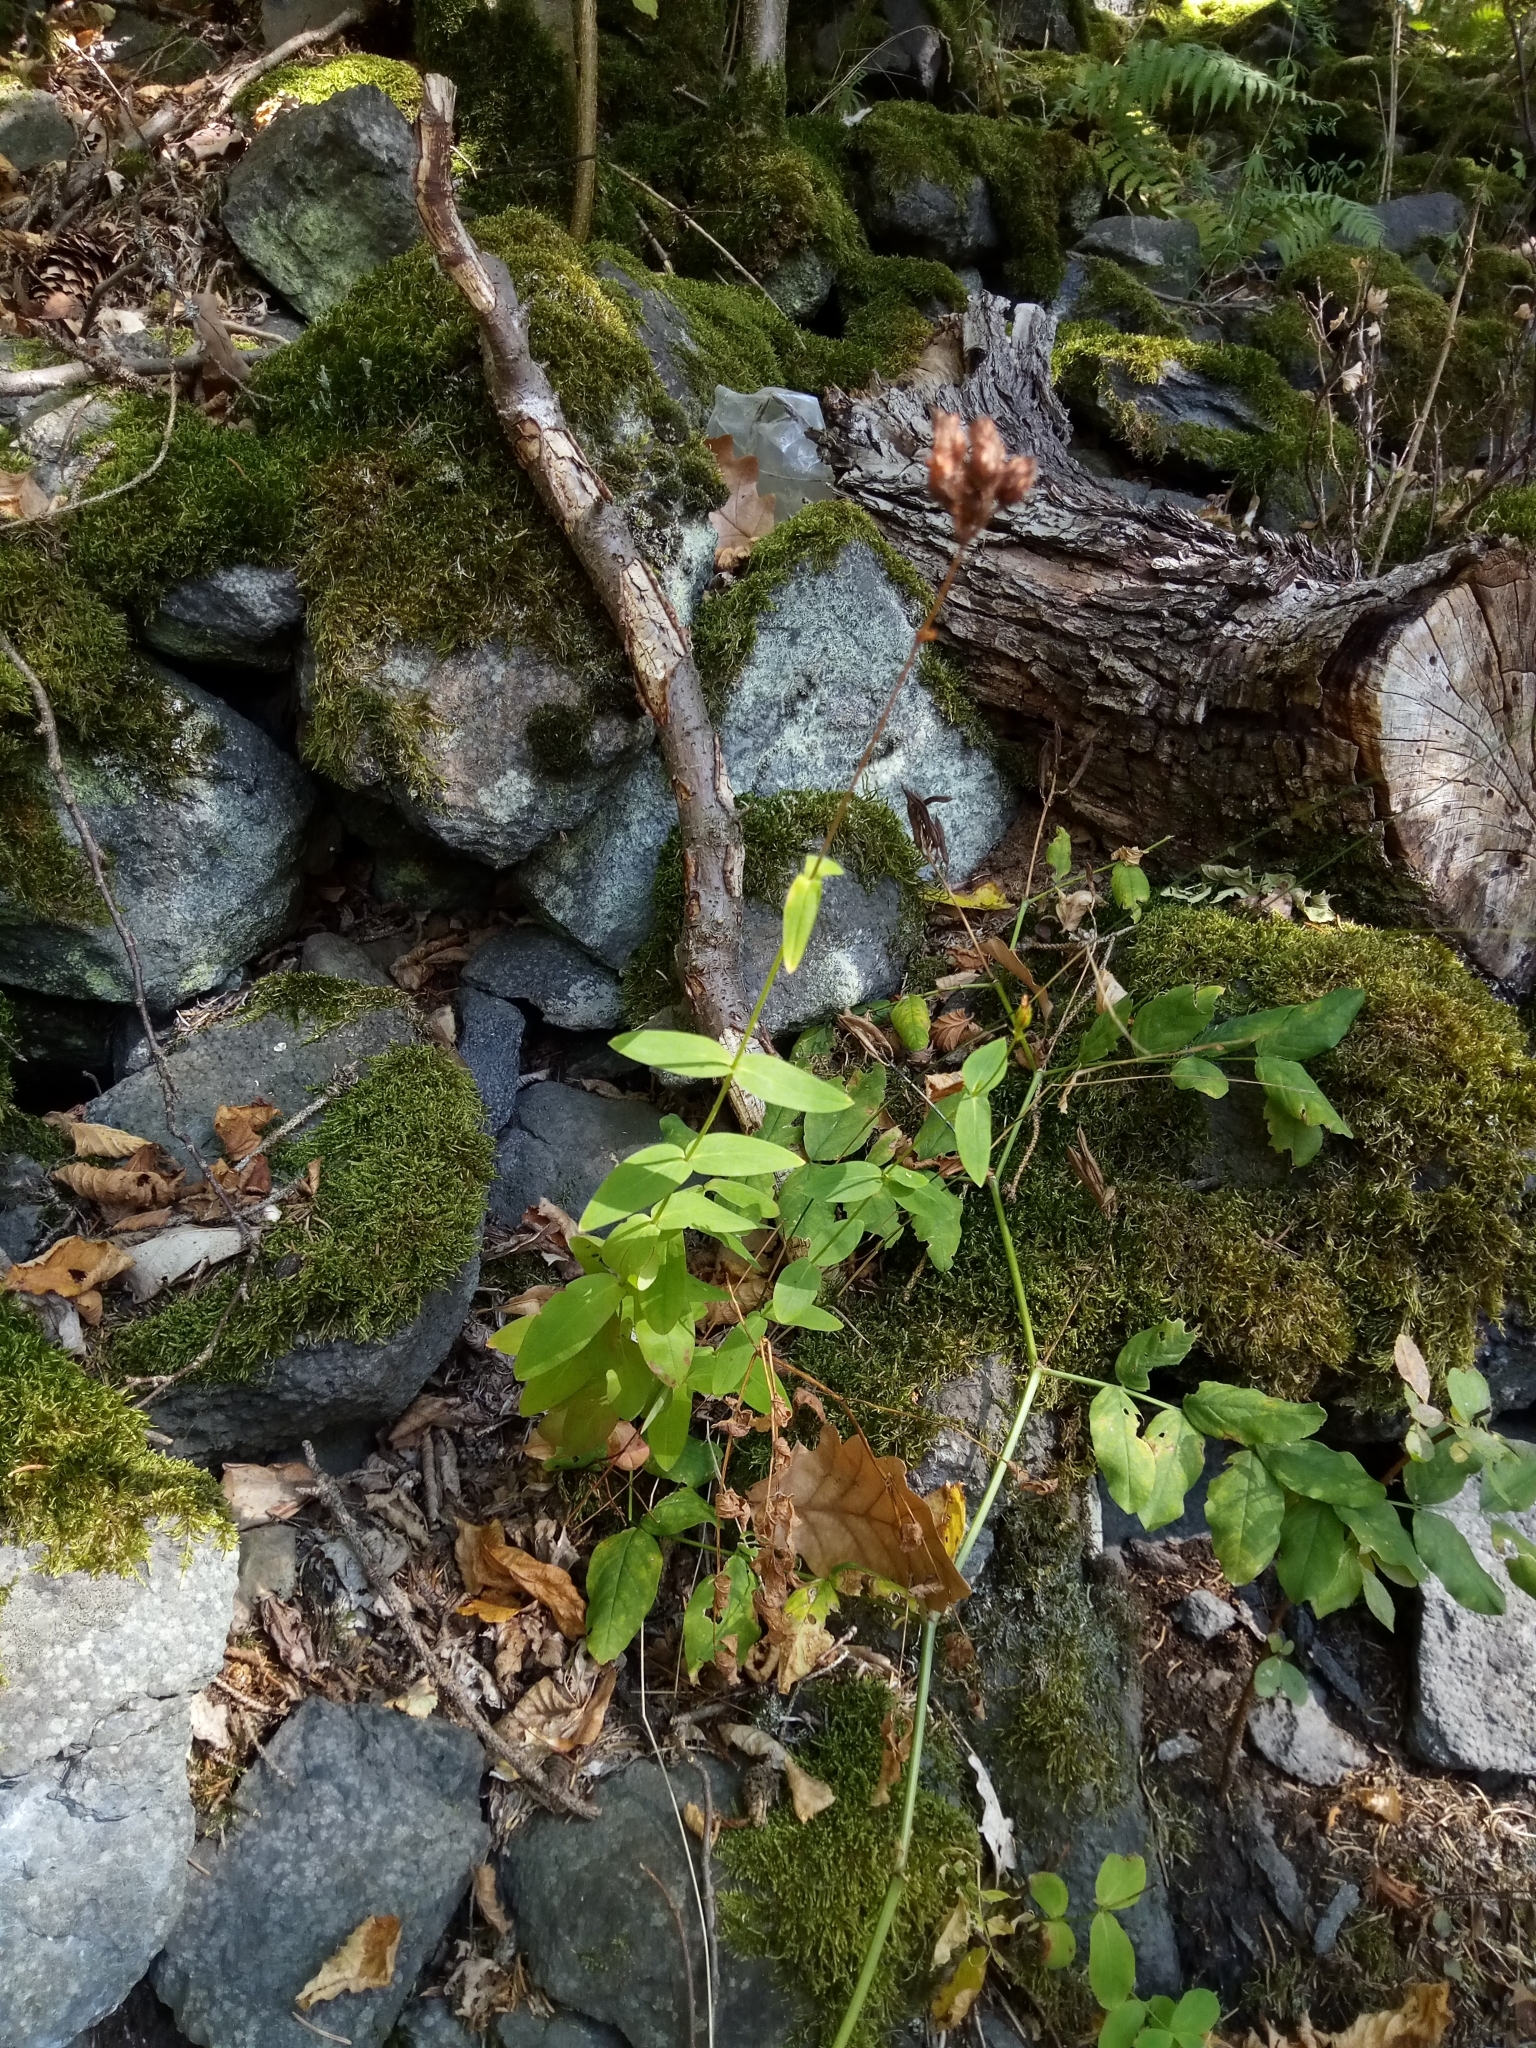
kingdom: Plantae
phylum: Tracheophyta
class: Magnoliopsida
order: Malpighiales
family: Hypericaceae
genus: Hypericum
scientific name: Hypericum montanum
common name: Pale st. john's-wort
